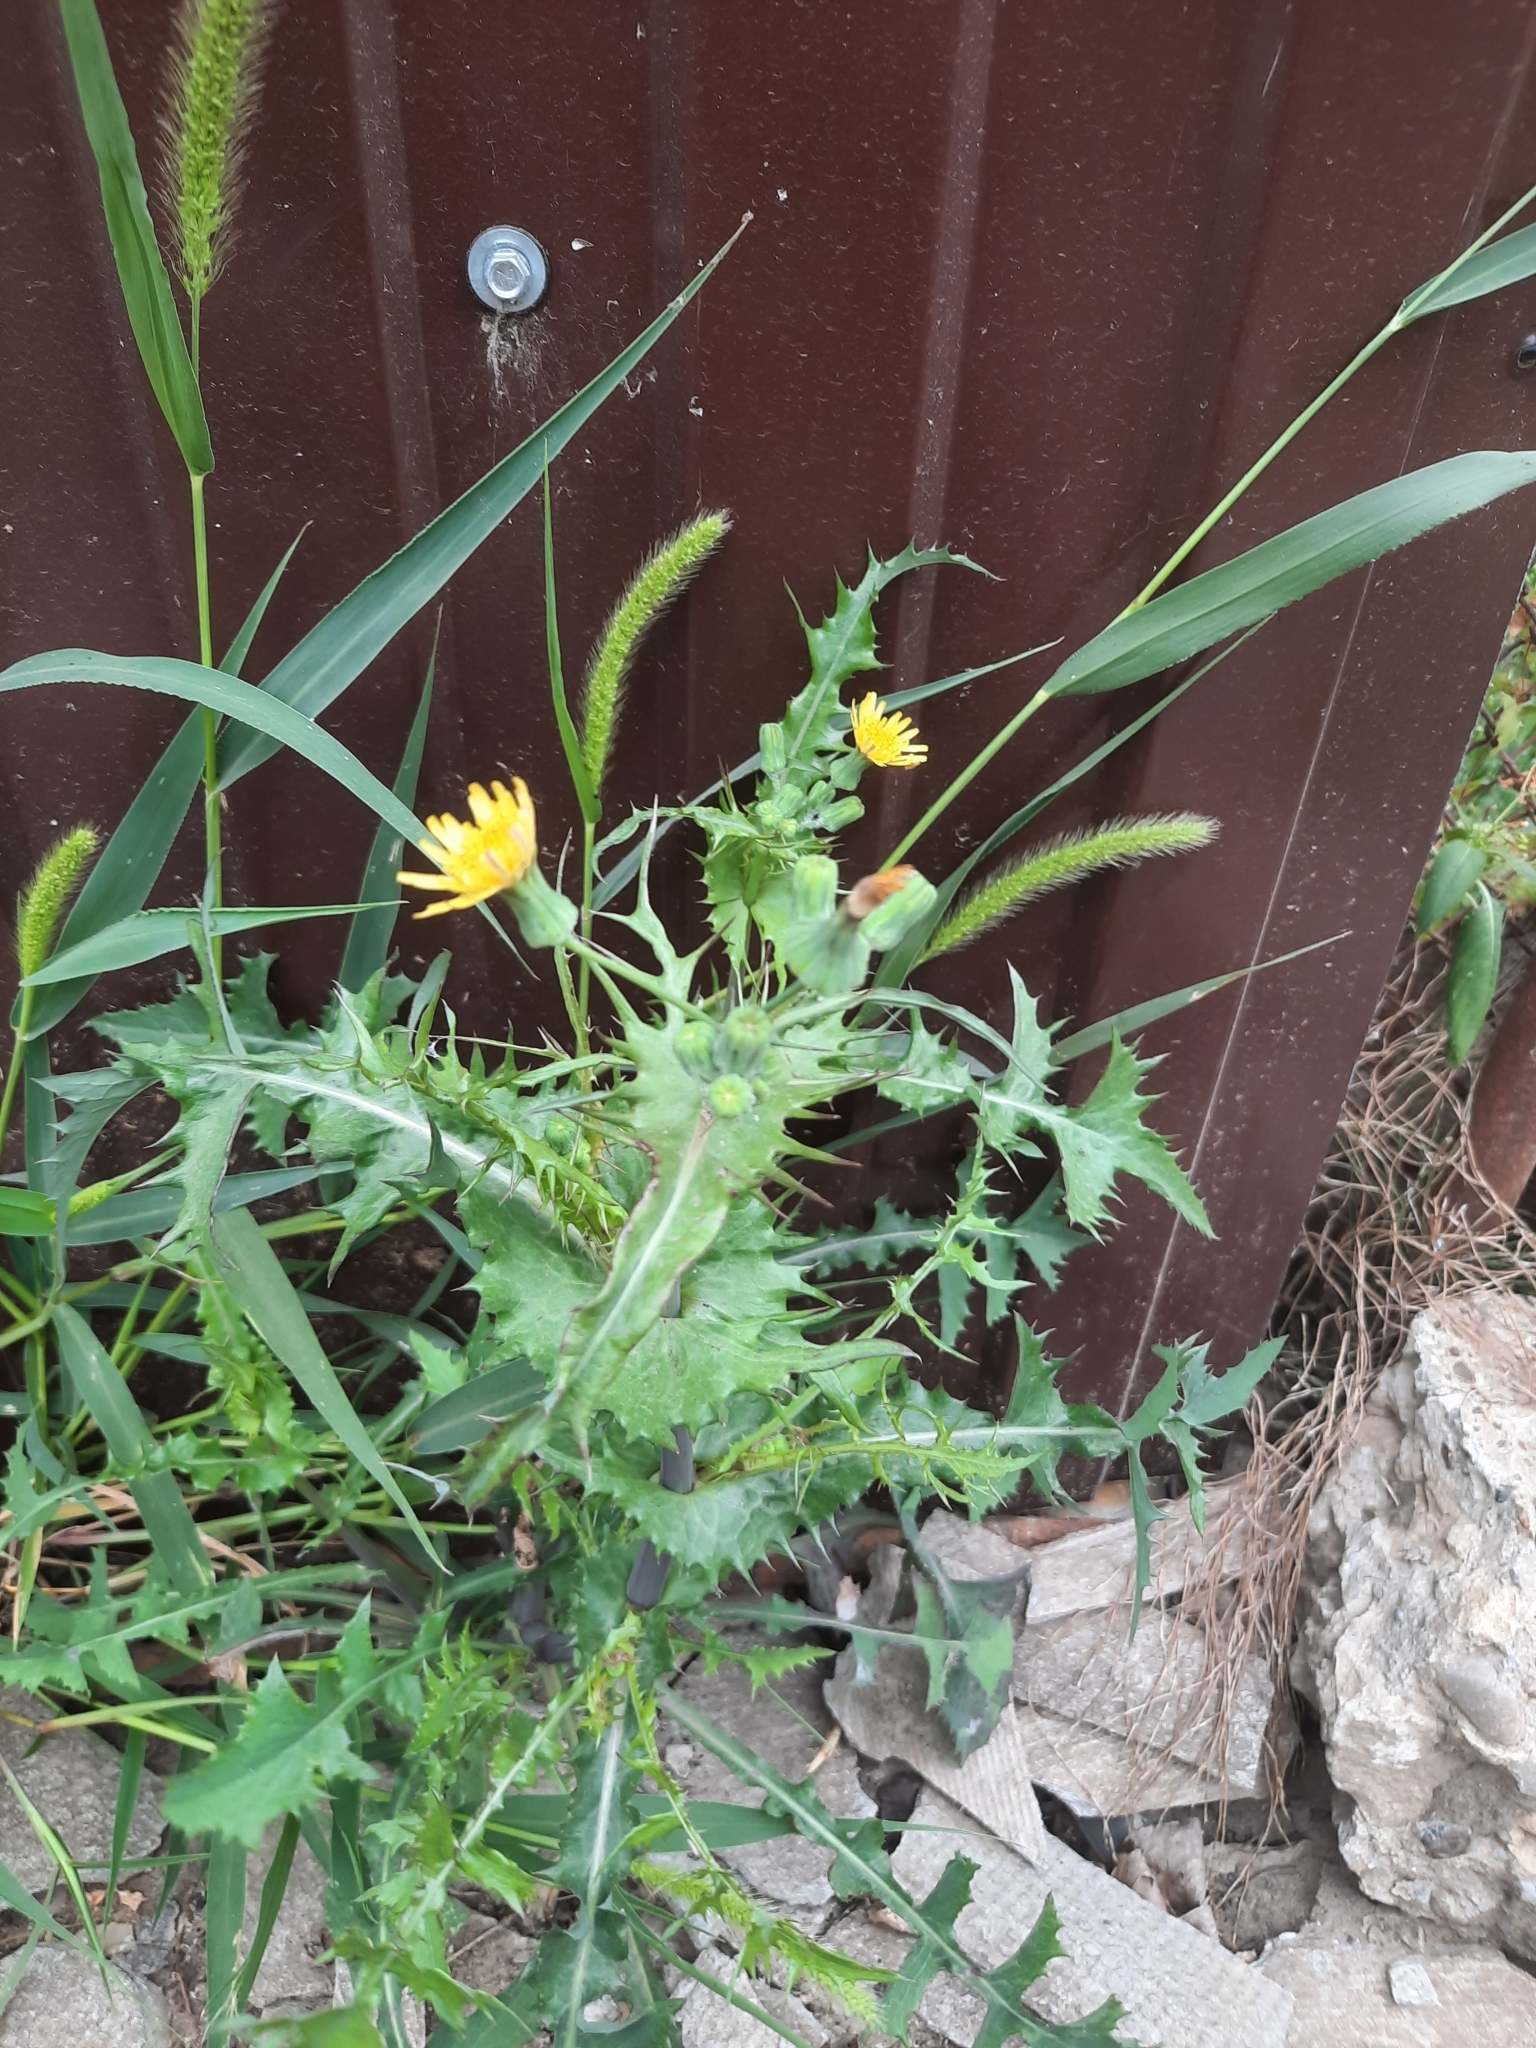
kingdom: Plantae
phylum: Tracheophyta
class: Magnoliopsida
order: Asterales
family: Asteraceae
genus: Sonchus
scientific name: Sonchus oleraceus
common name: Common sowthistle
